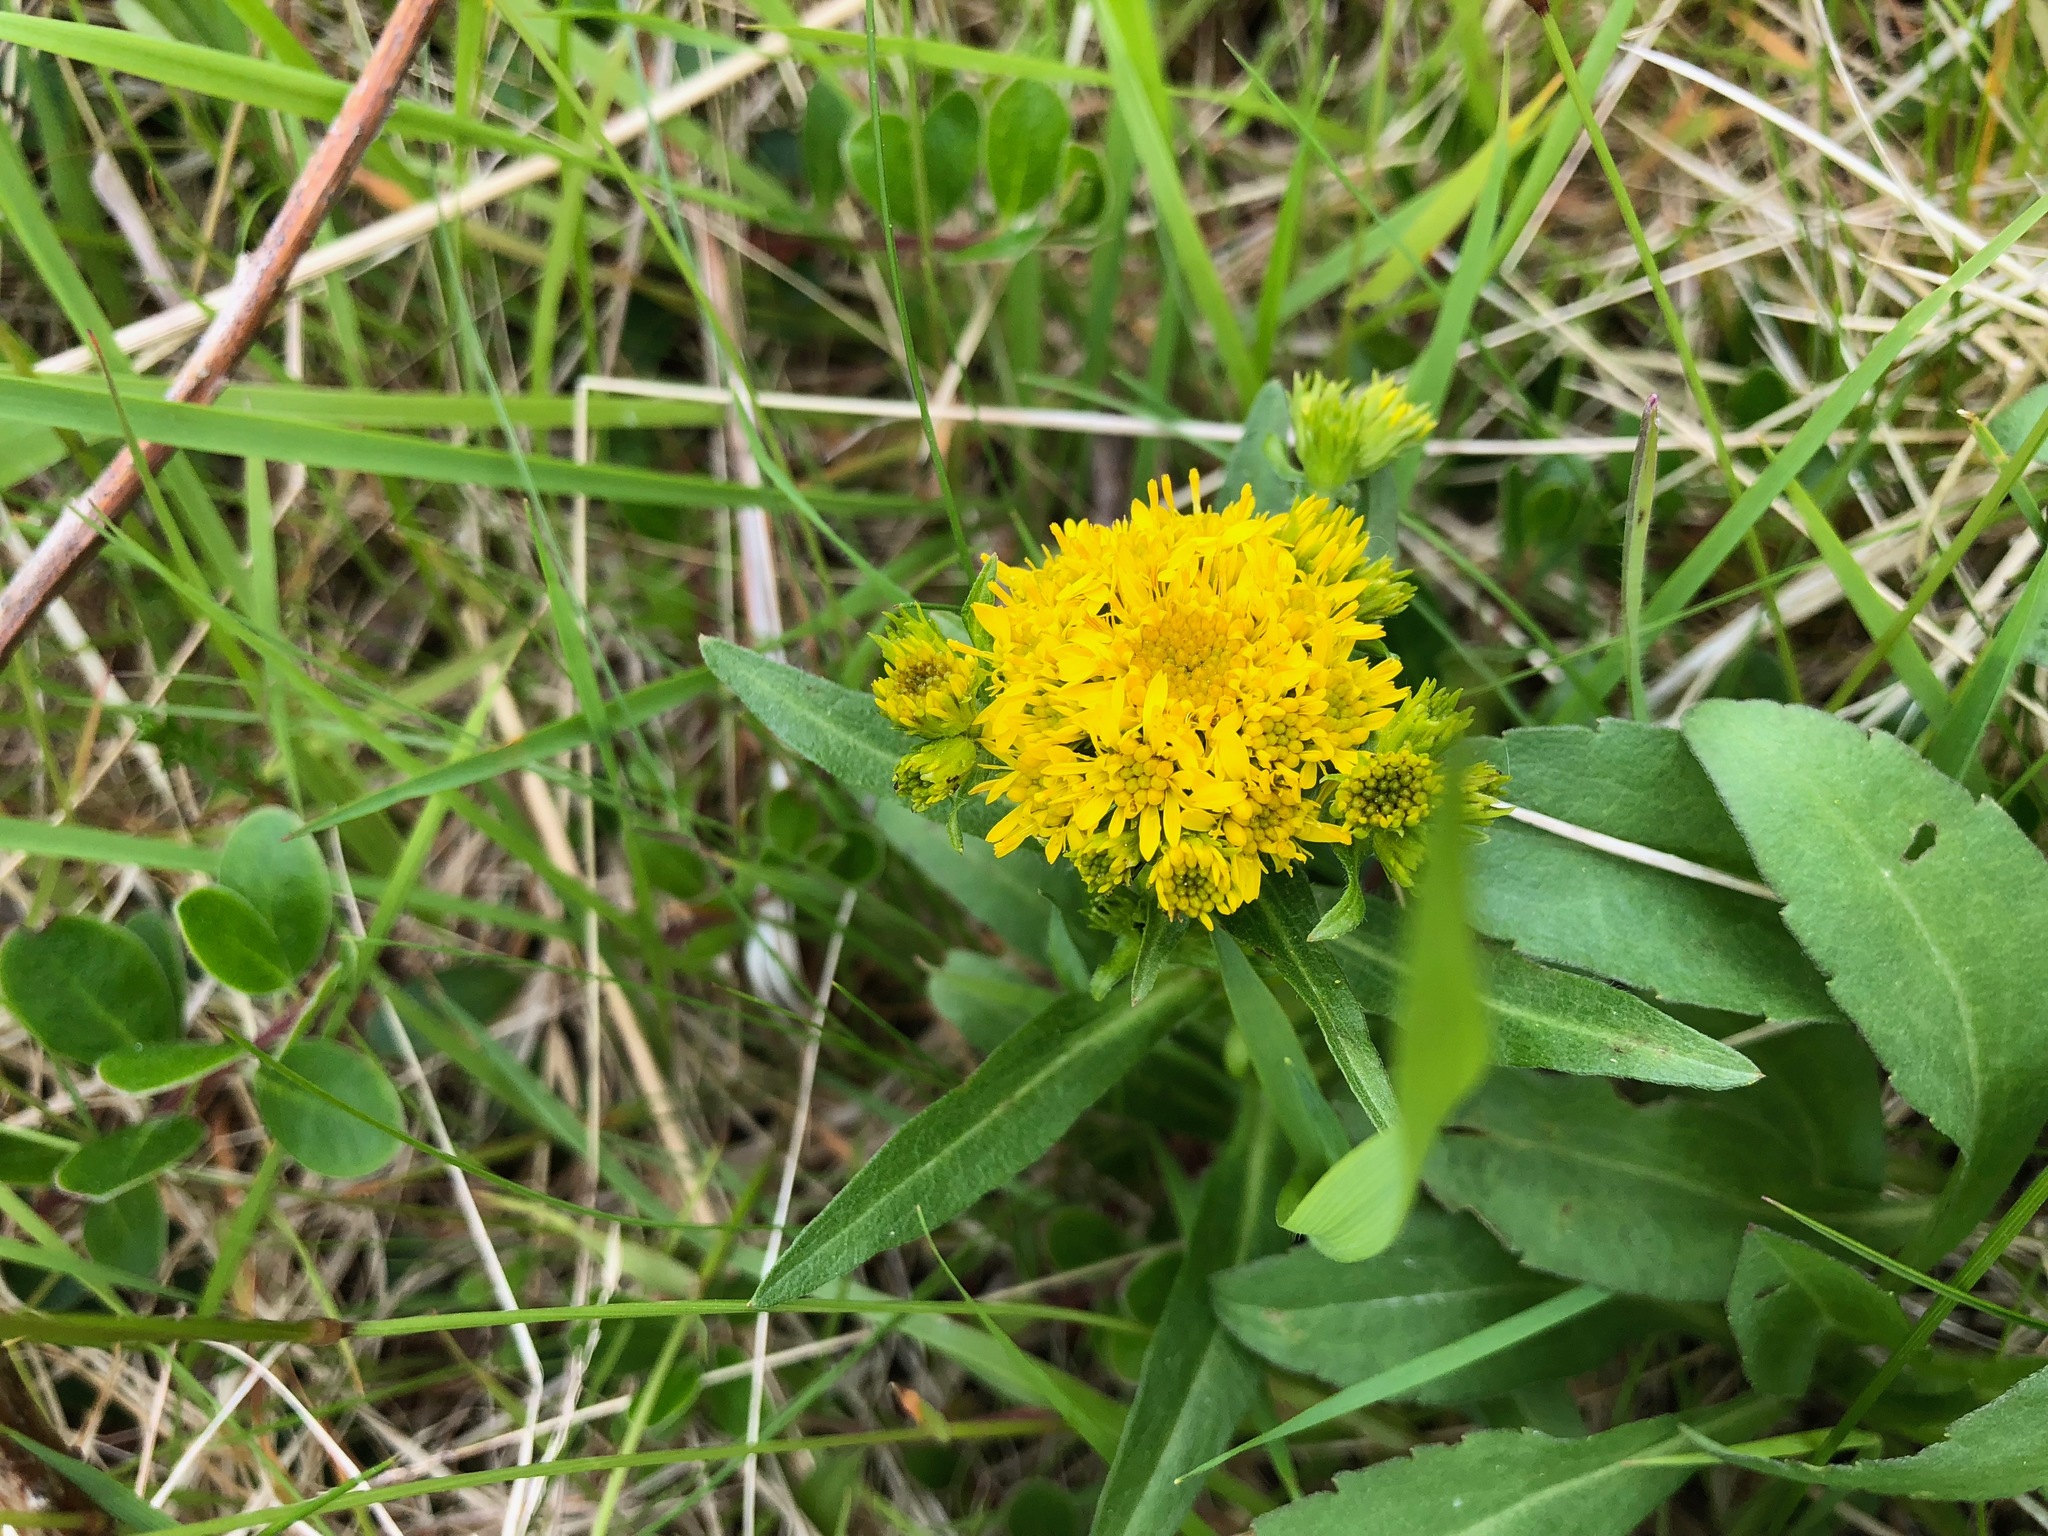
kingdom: Plantae
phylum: Tracheophyta
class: Magnoliopsida
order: Asterales
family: Asteraceae
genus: Solidago
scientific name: Solidago multiradiata
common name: Northern goldenrod
